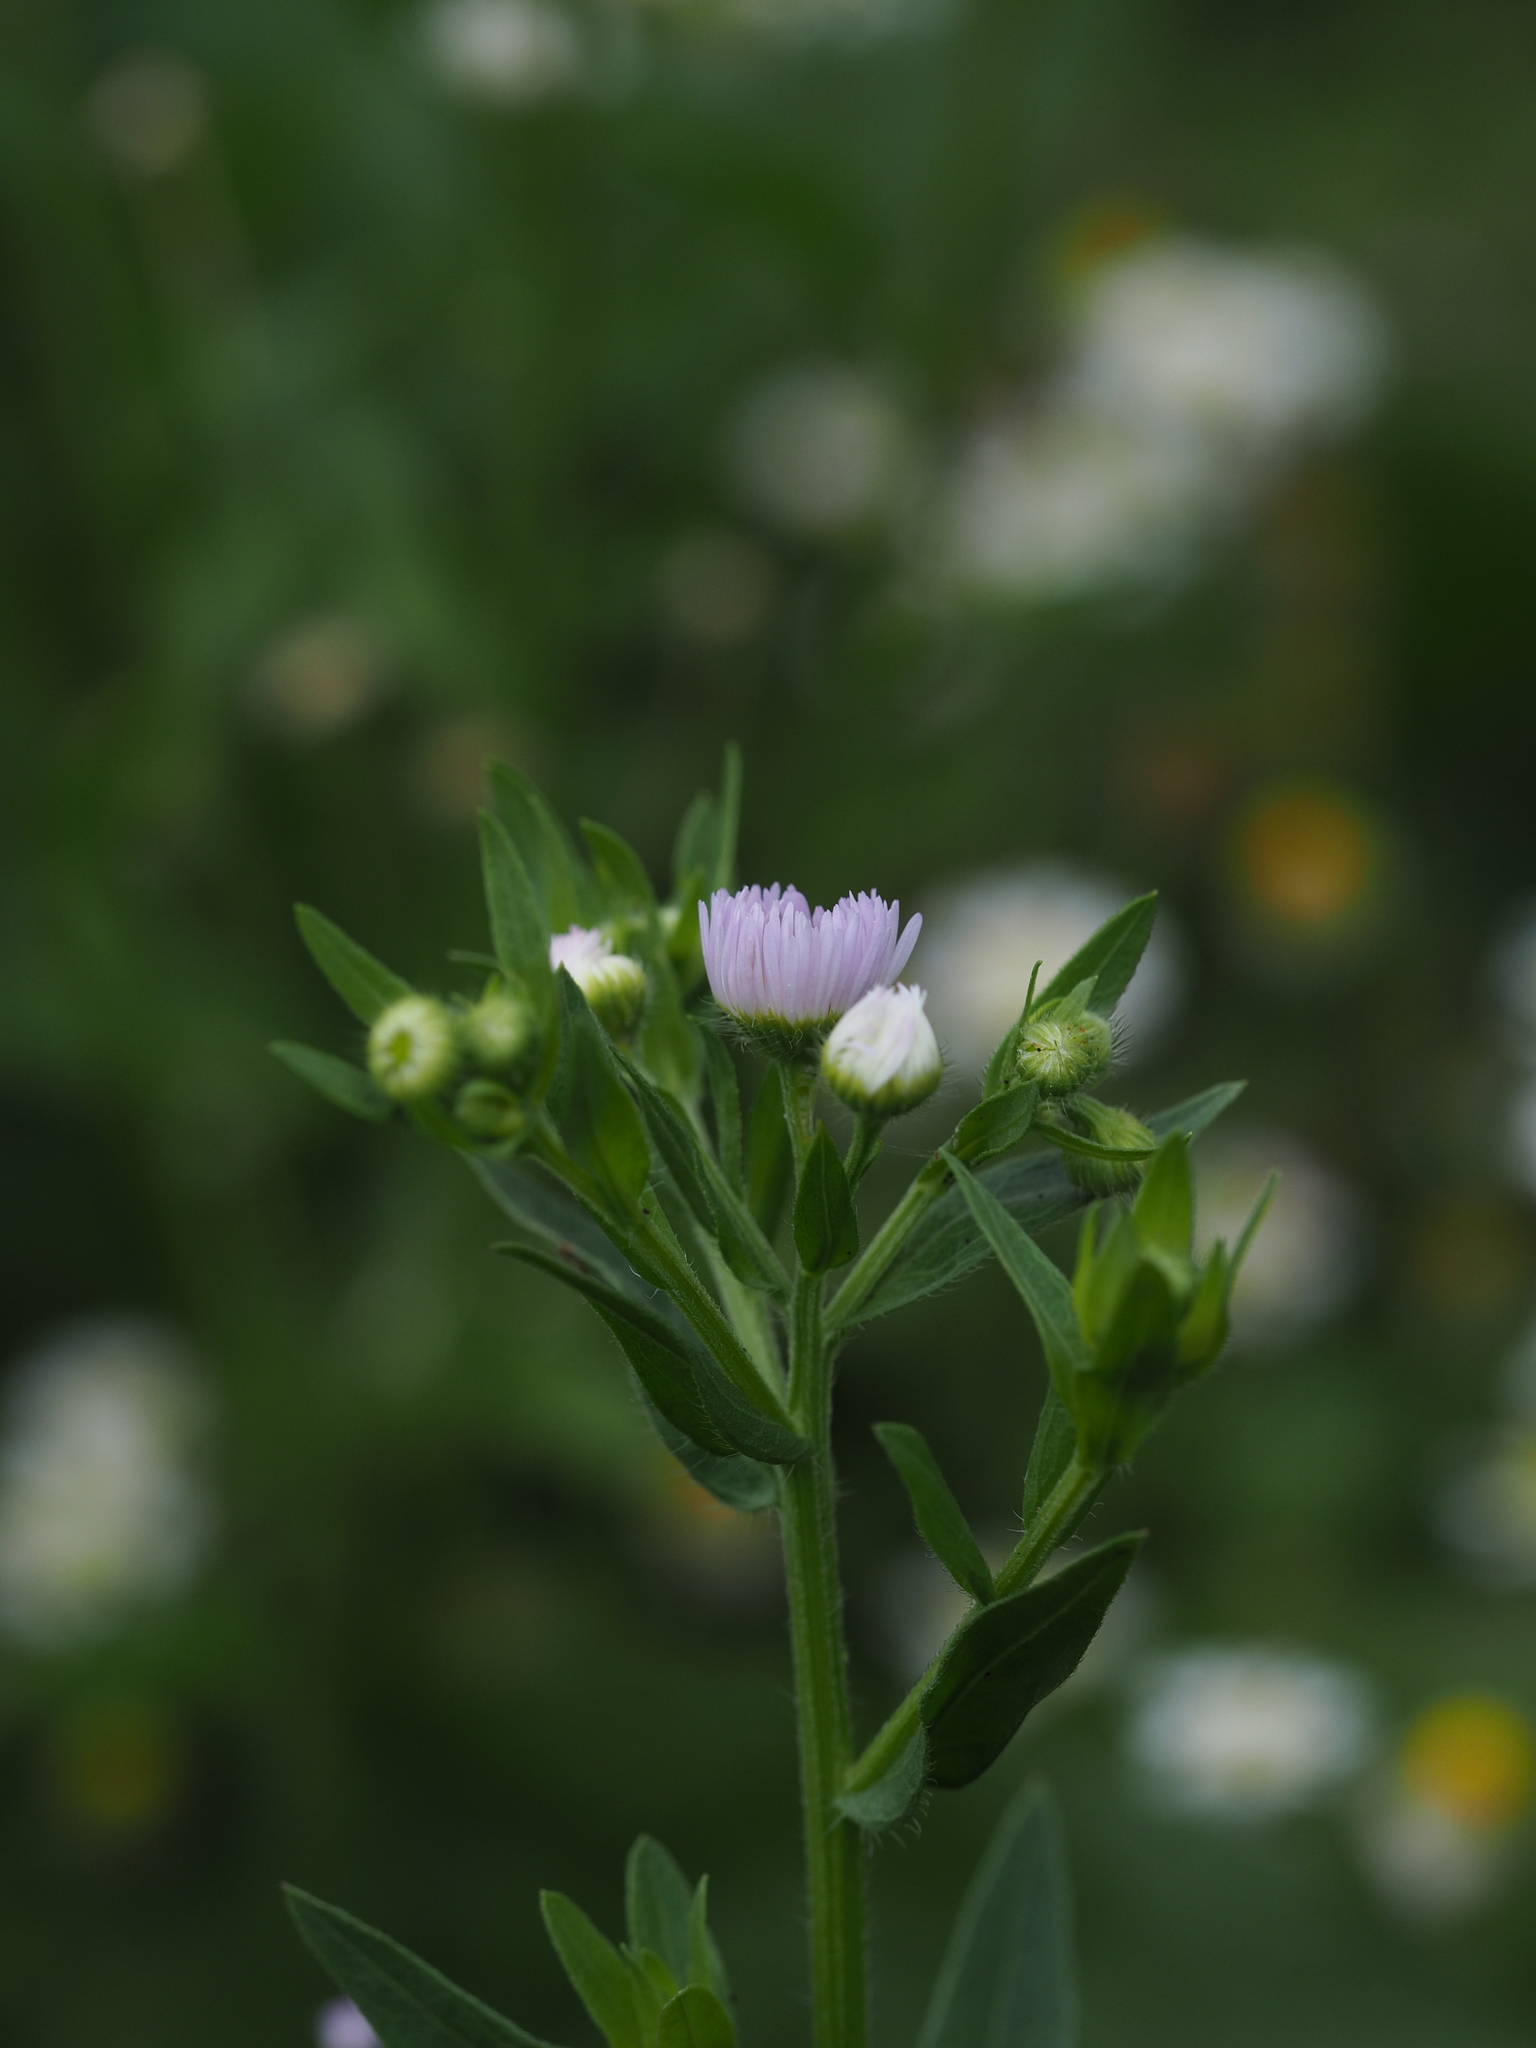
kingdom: Plantae
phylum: Tracheophyta
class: Magnoliopsida
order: Asterales
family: Asteraceae
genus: Erigeron
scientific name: Erigeron annuus
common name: Tall fleabane
